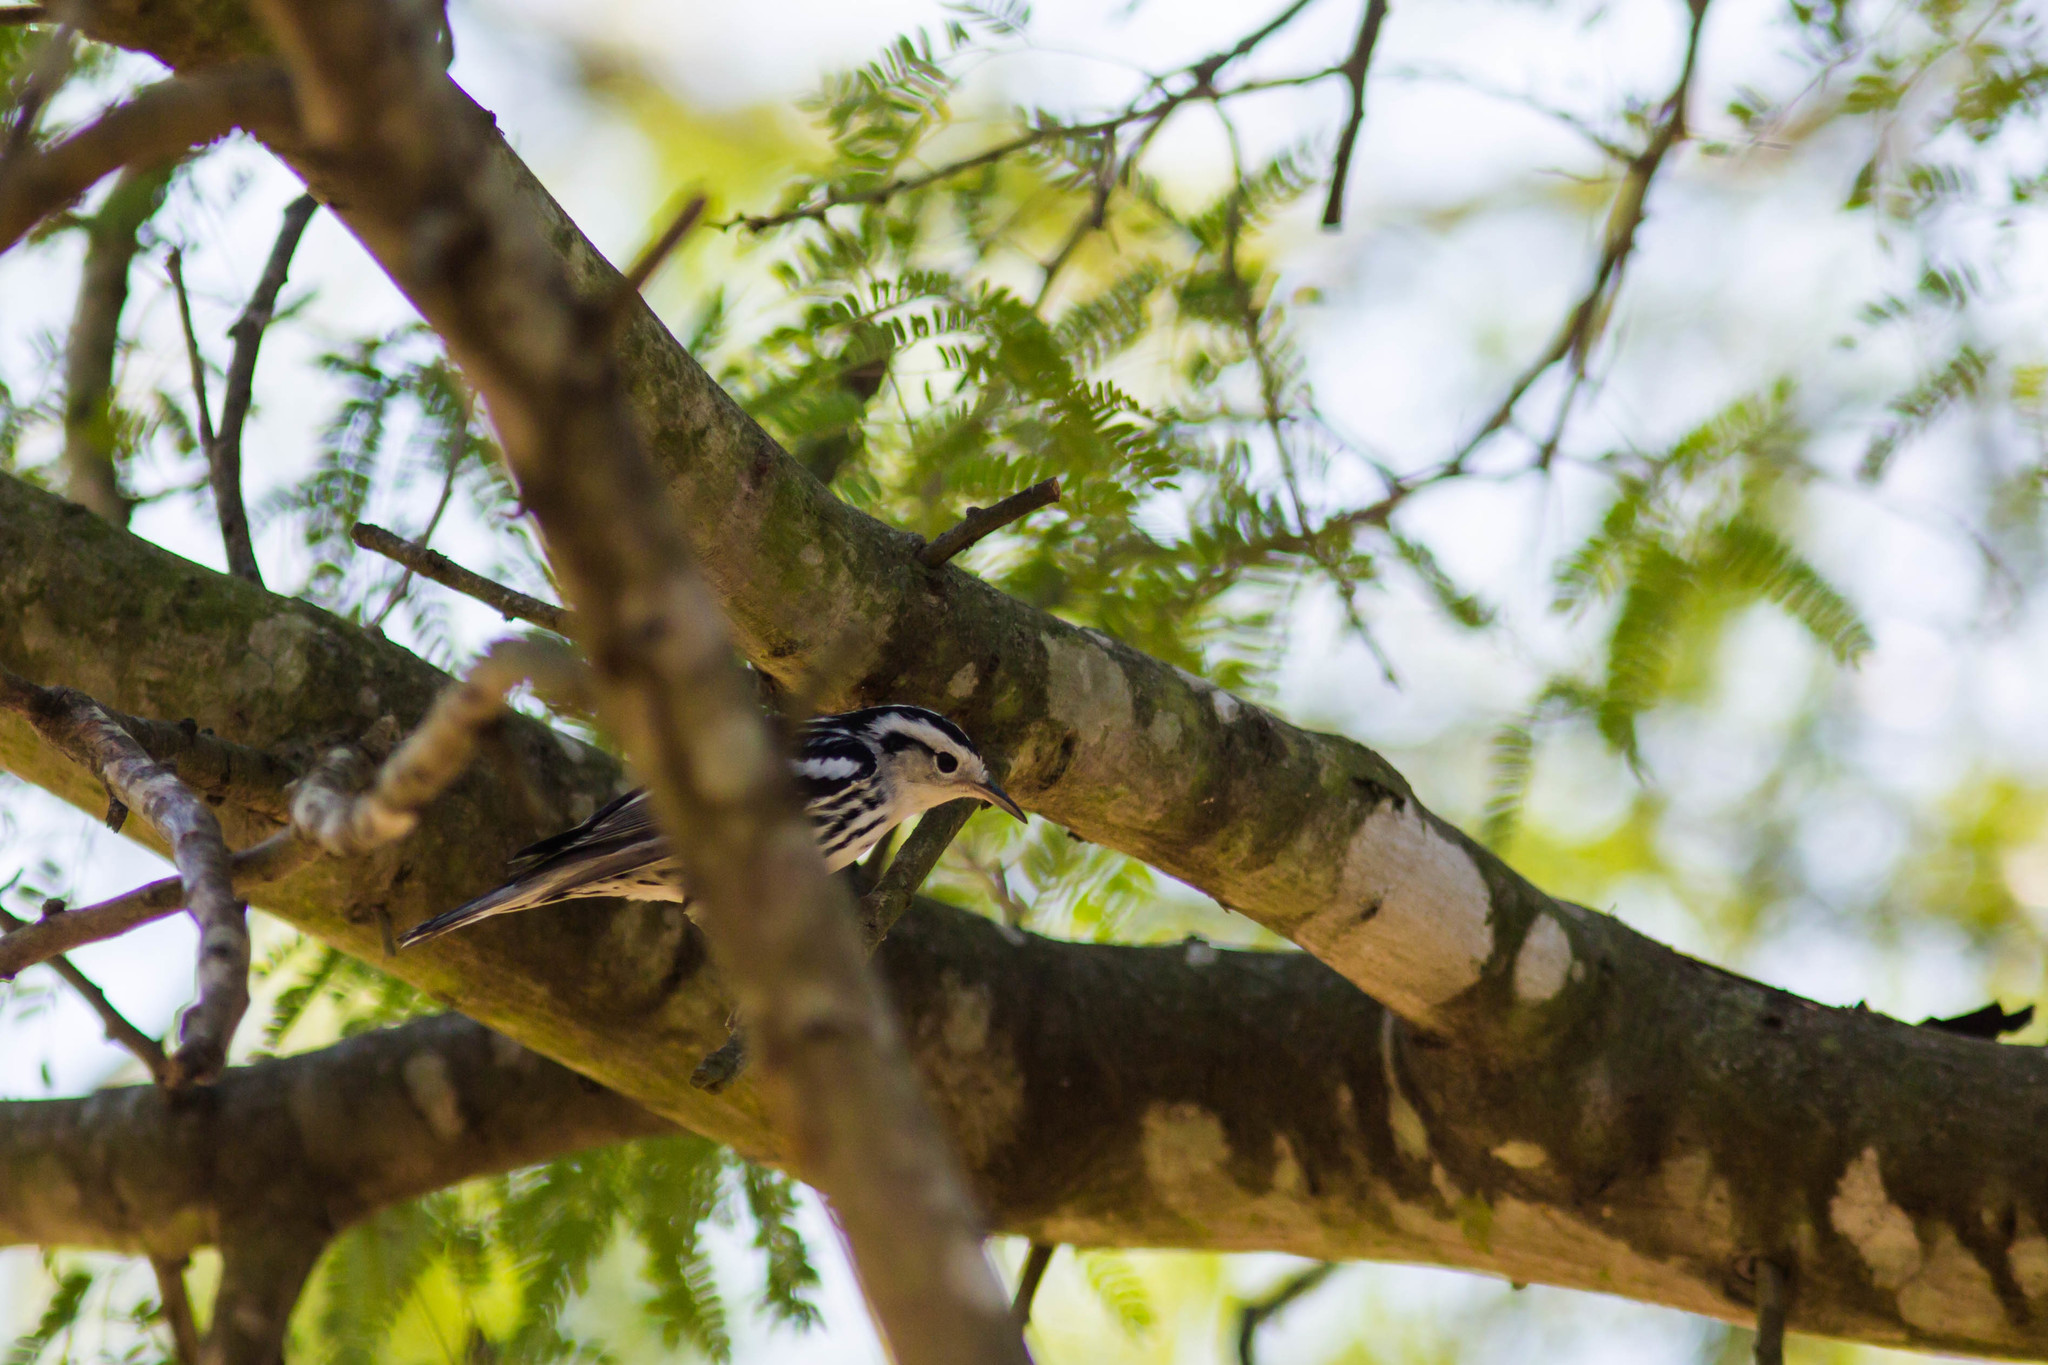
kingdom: Animalia
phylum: Chordata
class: Aves
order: Passeriformes
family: Parulidae
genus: Mniotilta
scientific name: Mniotilta varia
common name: Black-and-white warbler
